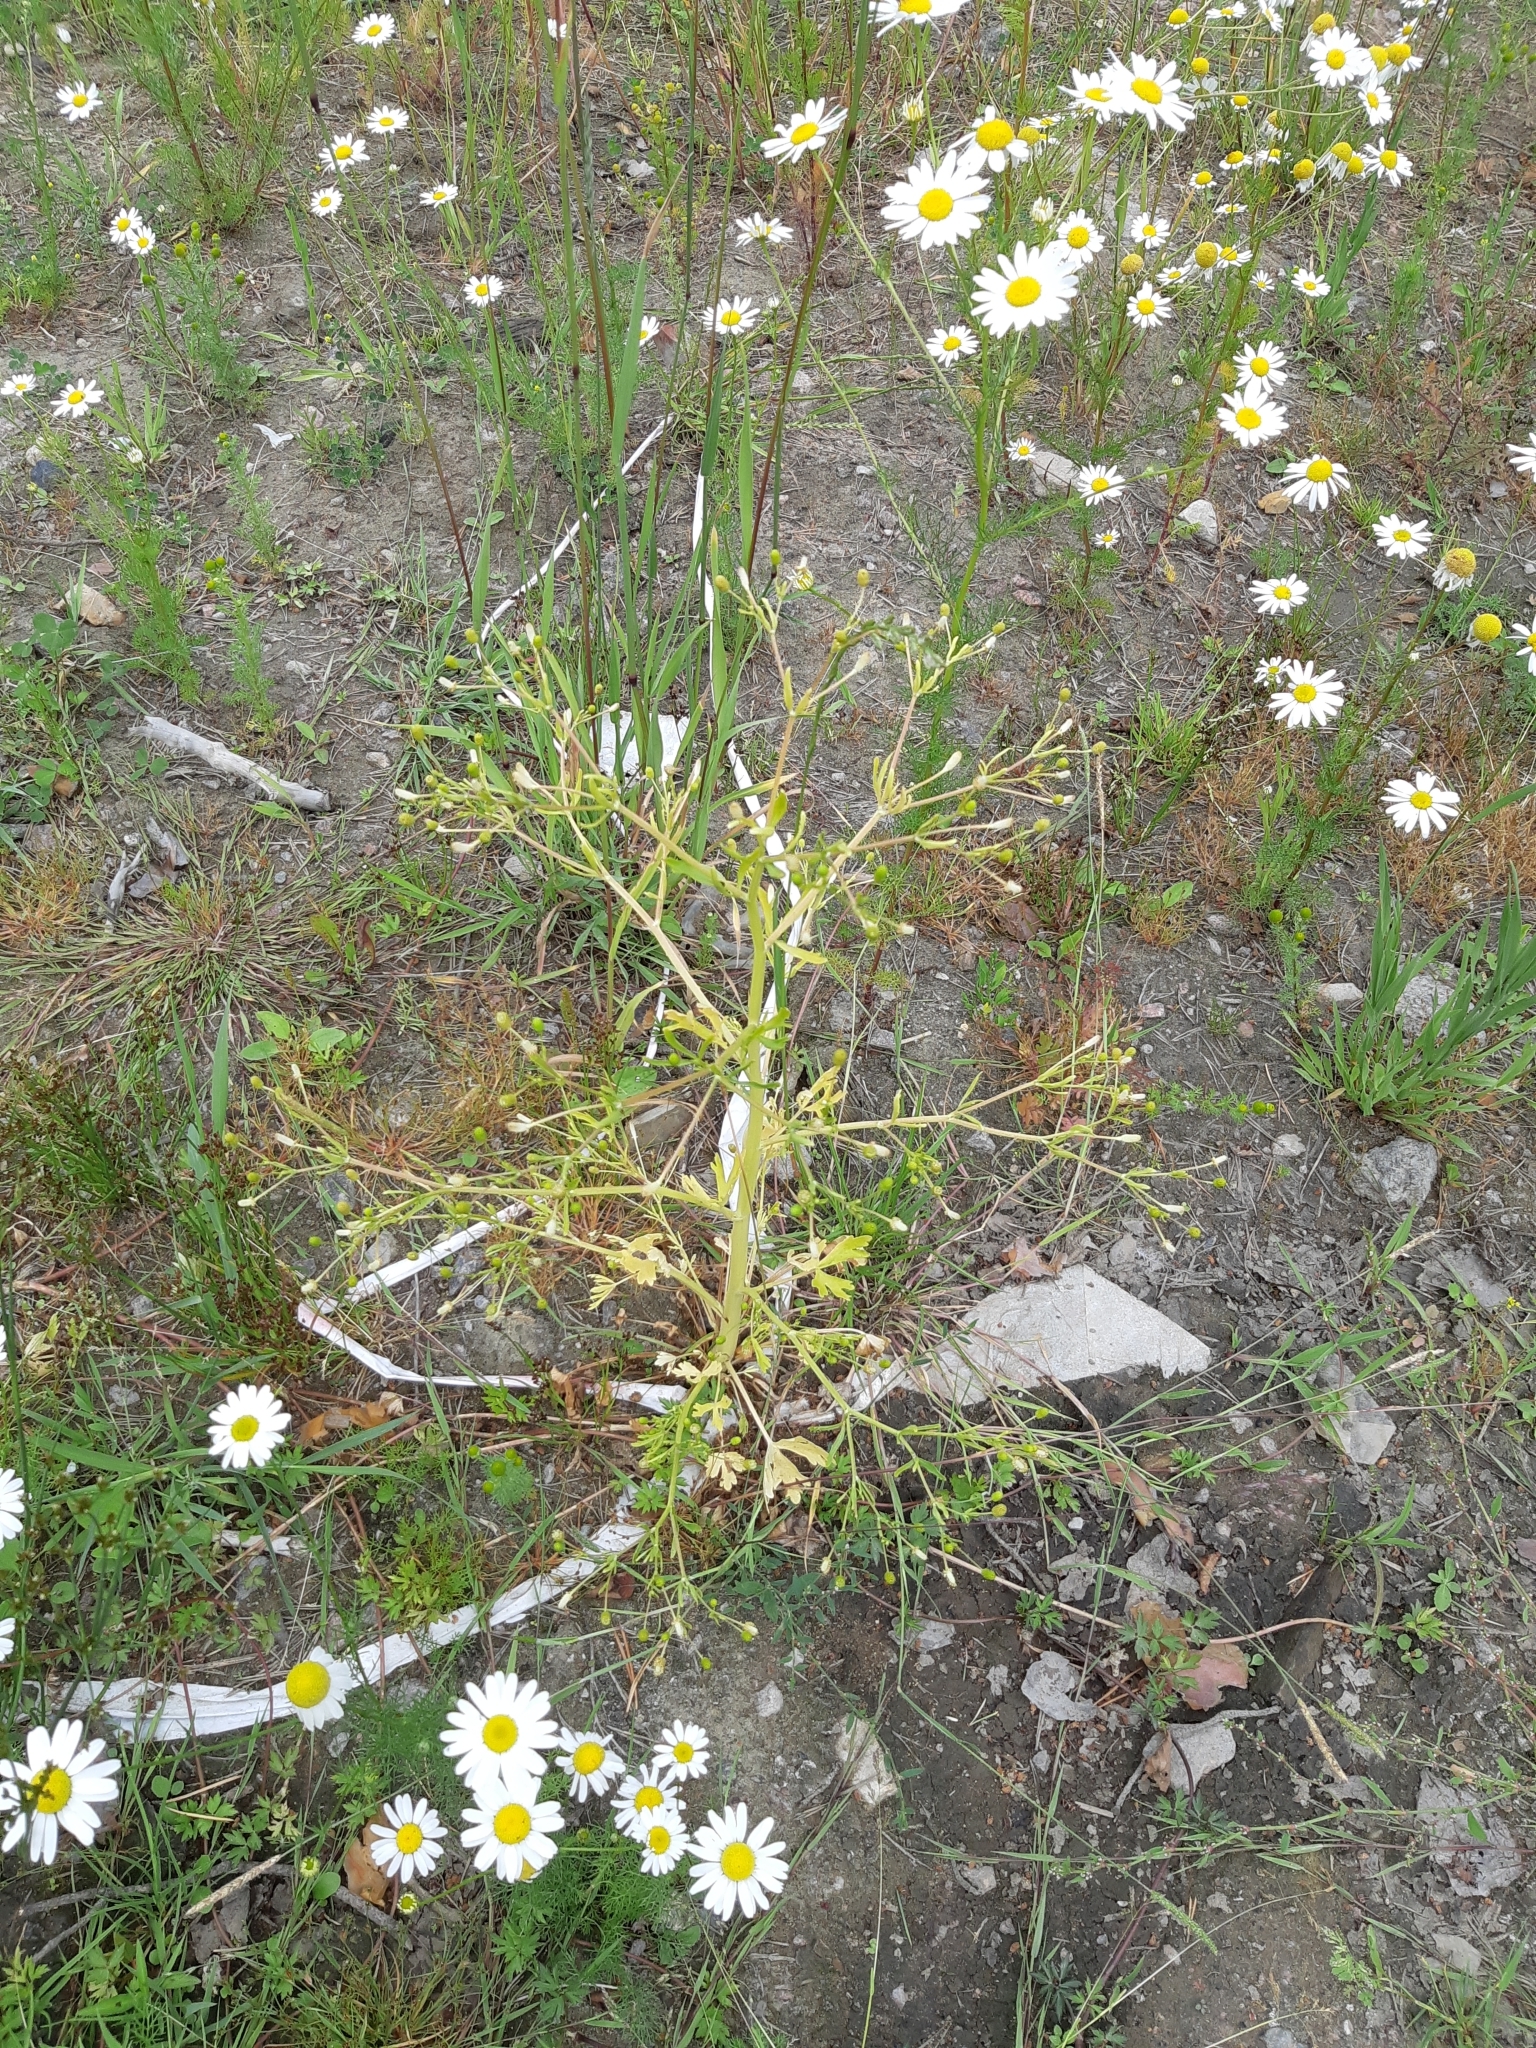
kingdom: Plantae
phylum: Tracheophyta
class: Magnoliopsida
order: Ranunculales
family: Ranunculaceae
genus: Ranunculus
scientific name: Ranunculus sceleratus
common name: Celery-leaved buttercup
